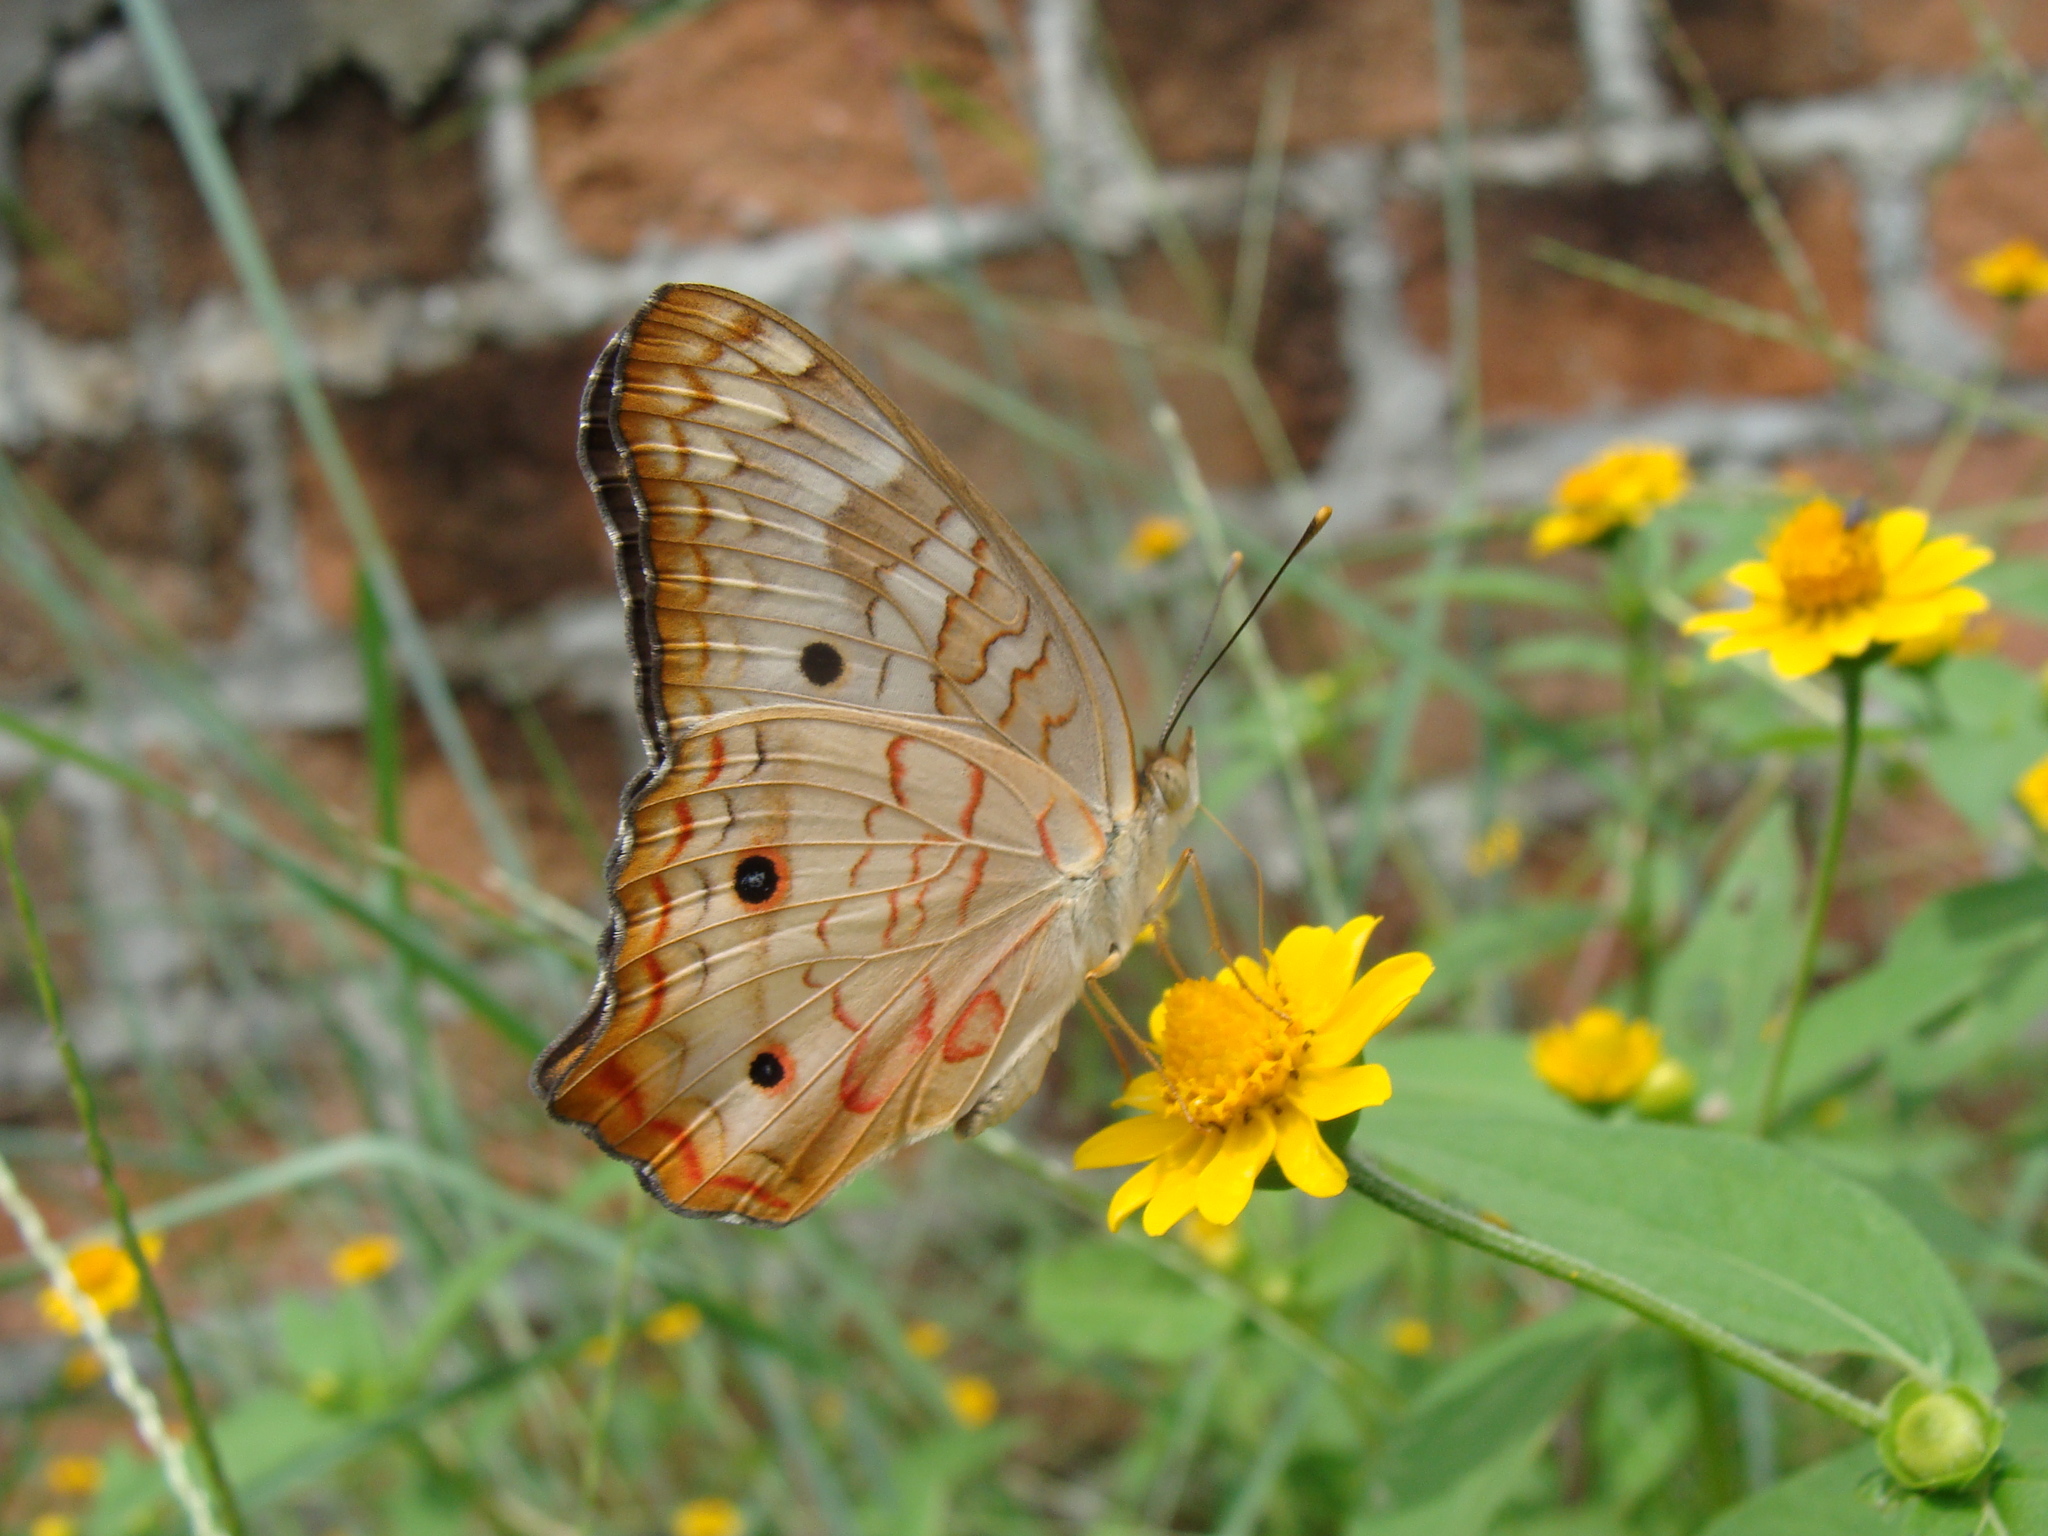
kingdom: Animalia
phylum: Arthropoda
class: Insecta
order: Lepidoptera
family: Nymphalidae
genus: Anartia
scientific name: Anartia jatrophae
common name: White peacock
